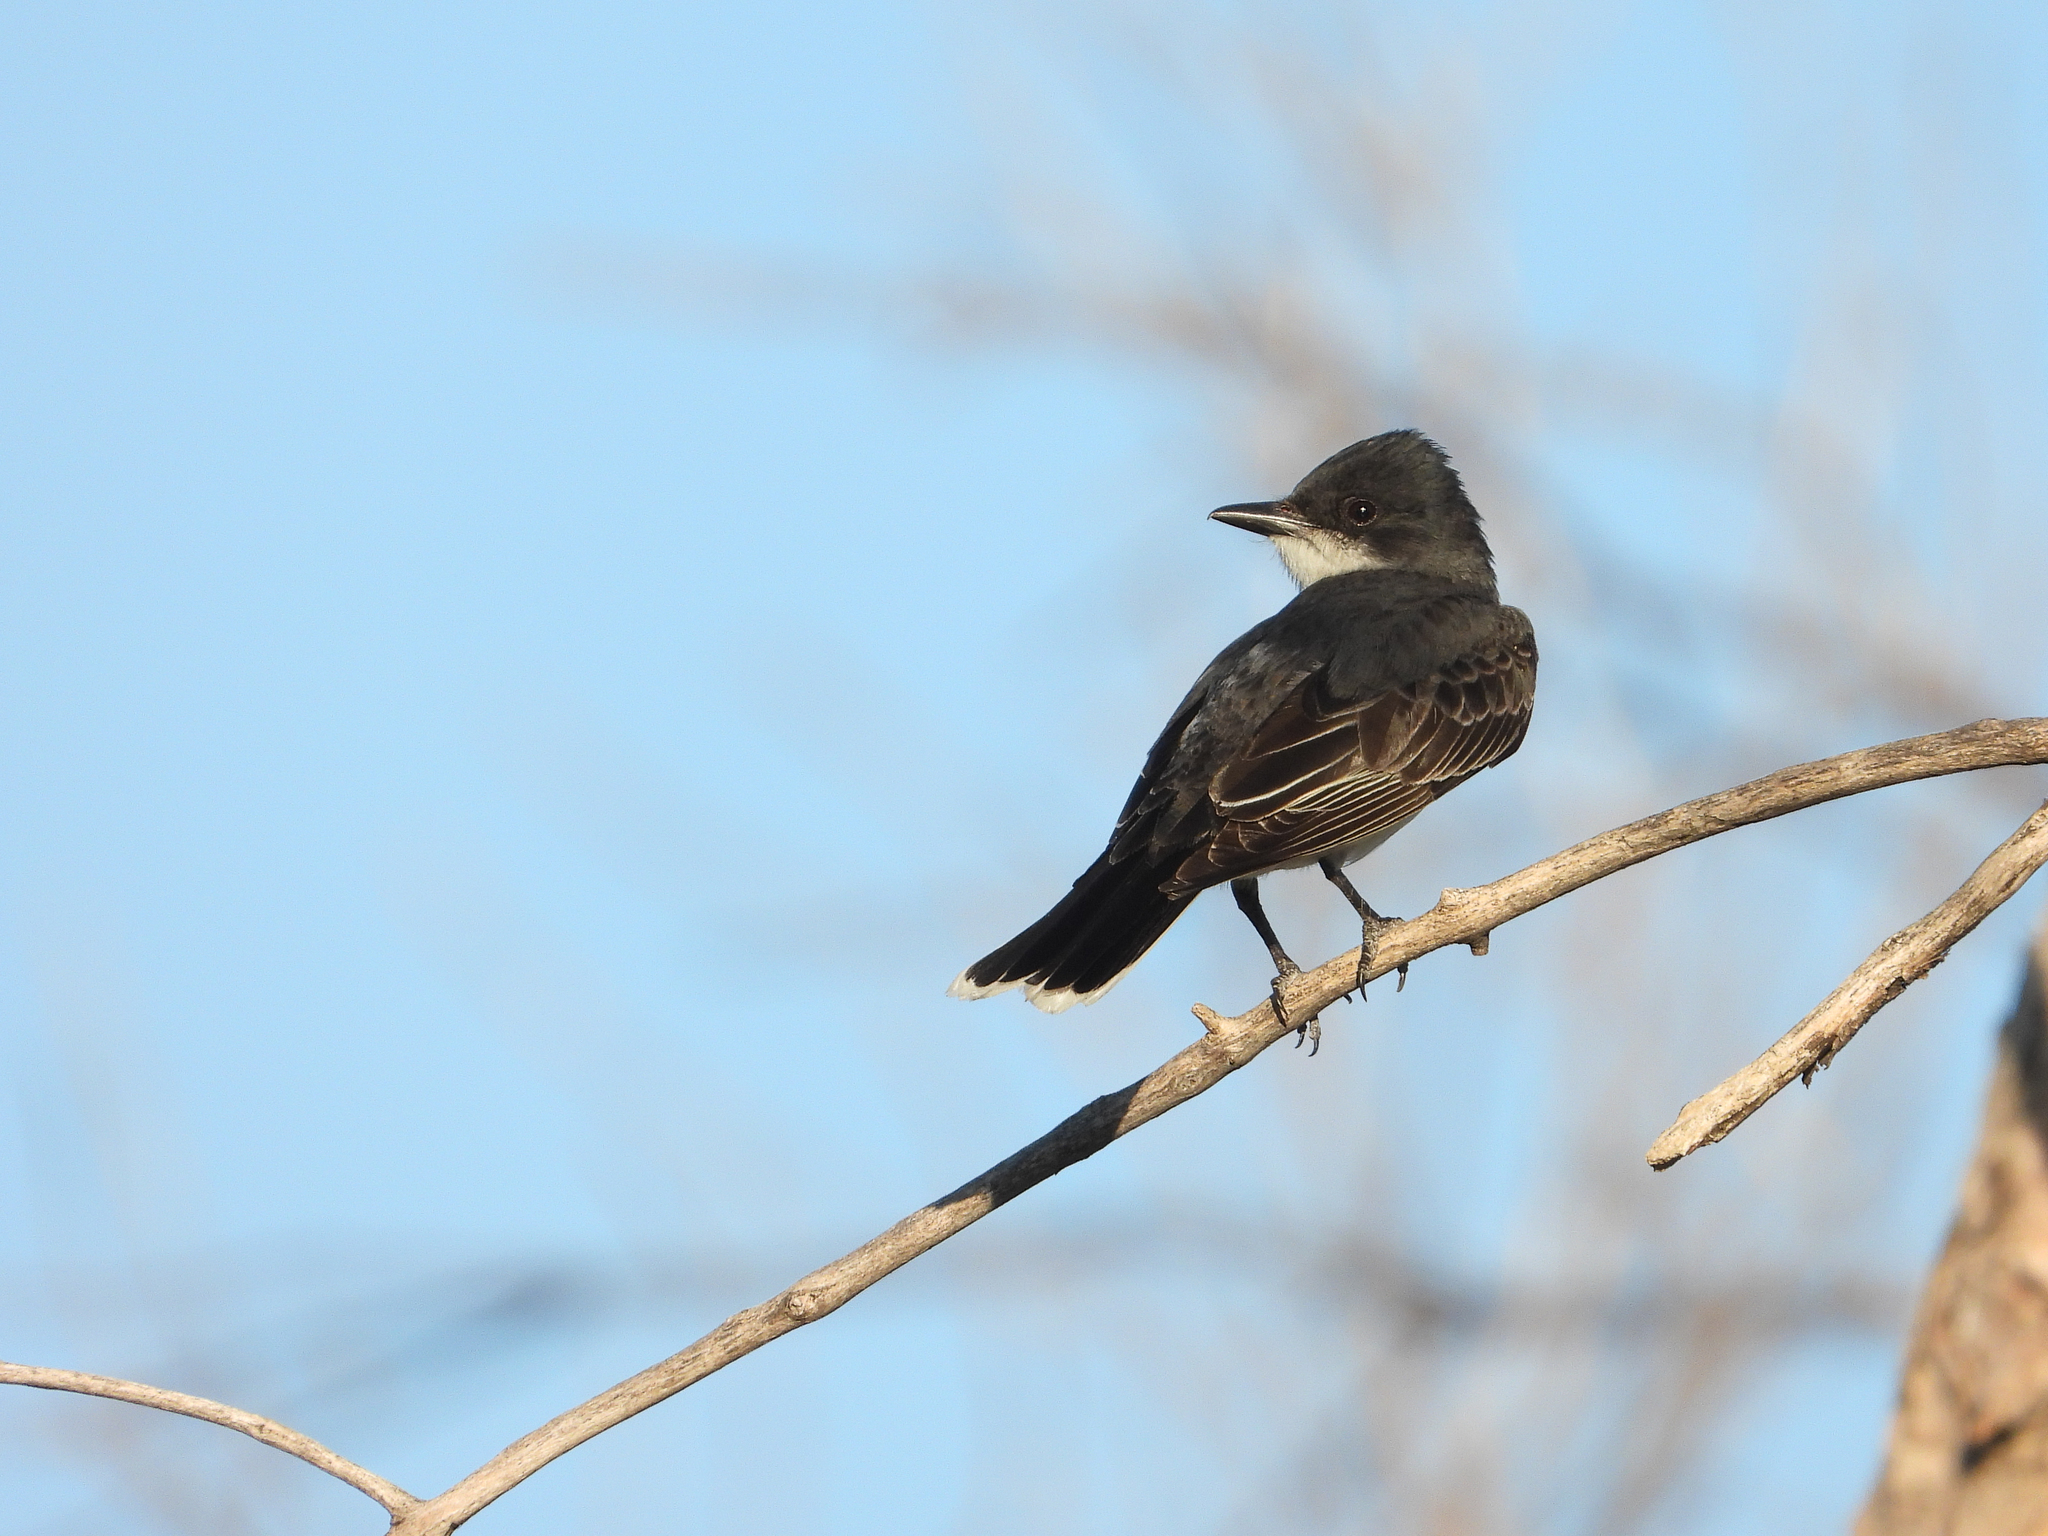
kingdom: Animalia
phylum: Chordata
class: Aves
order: Passeriformes
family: Tyrannidae
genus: Tyrannus
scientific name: Tyrannus tyrannus
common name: Eastern kingbird
